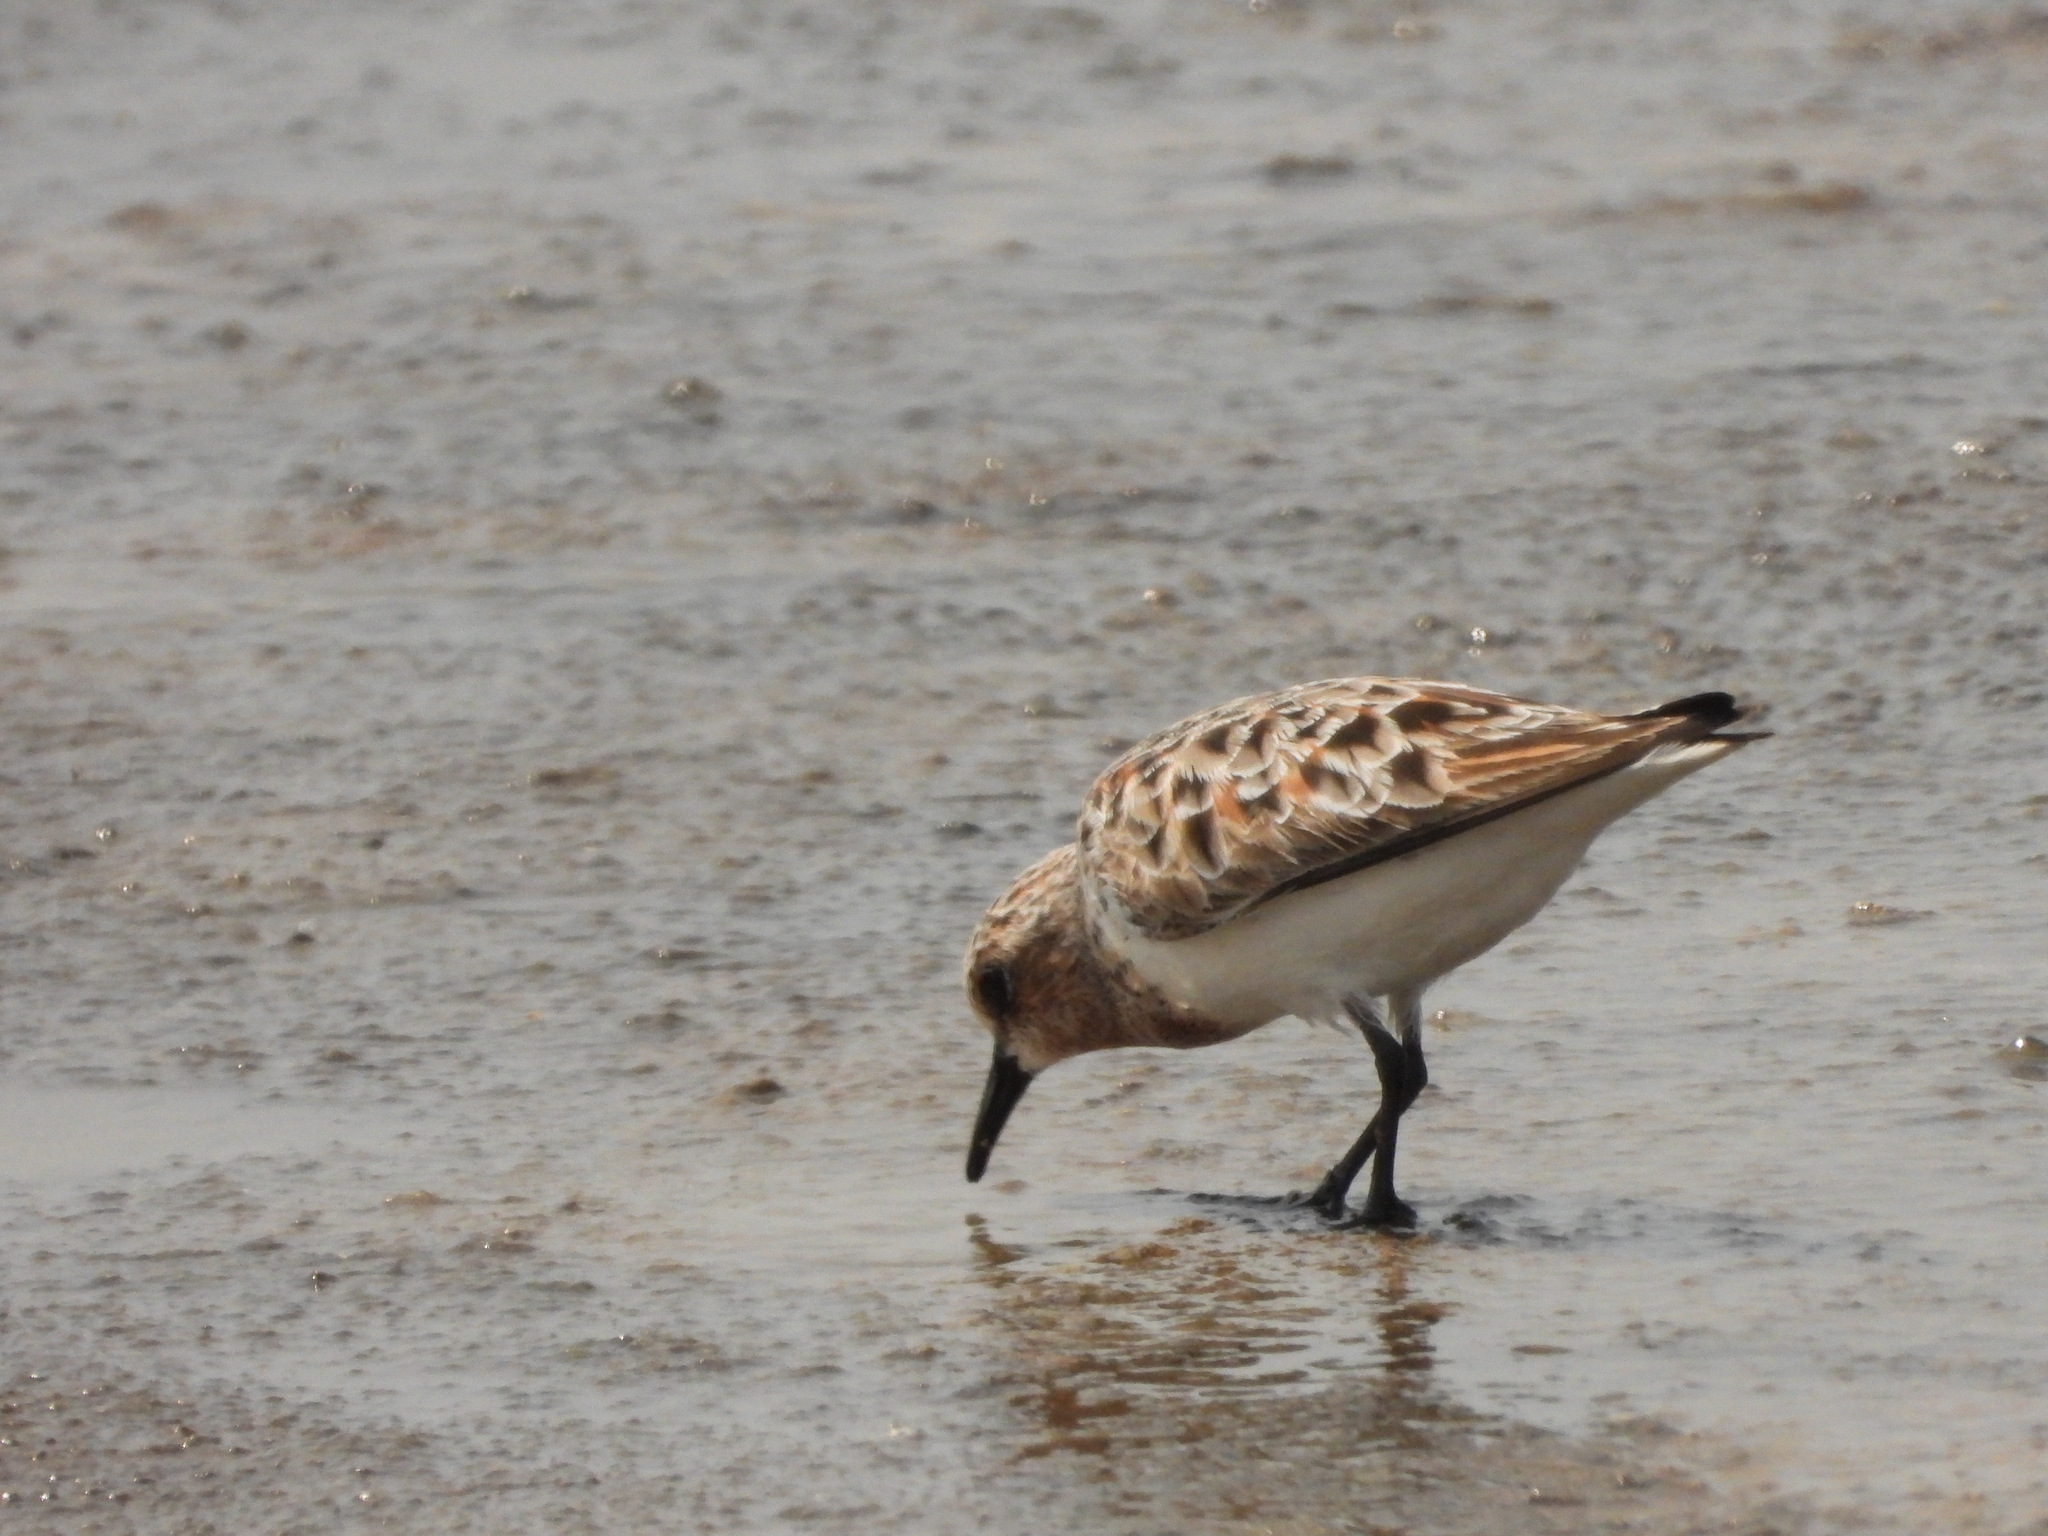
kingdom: Animalia
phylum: Chordata
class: Aves
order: Charadriiformes
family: Scolopacidae
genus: Calidris
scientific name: Calidris ruficollis
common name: Red-necked stint
